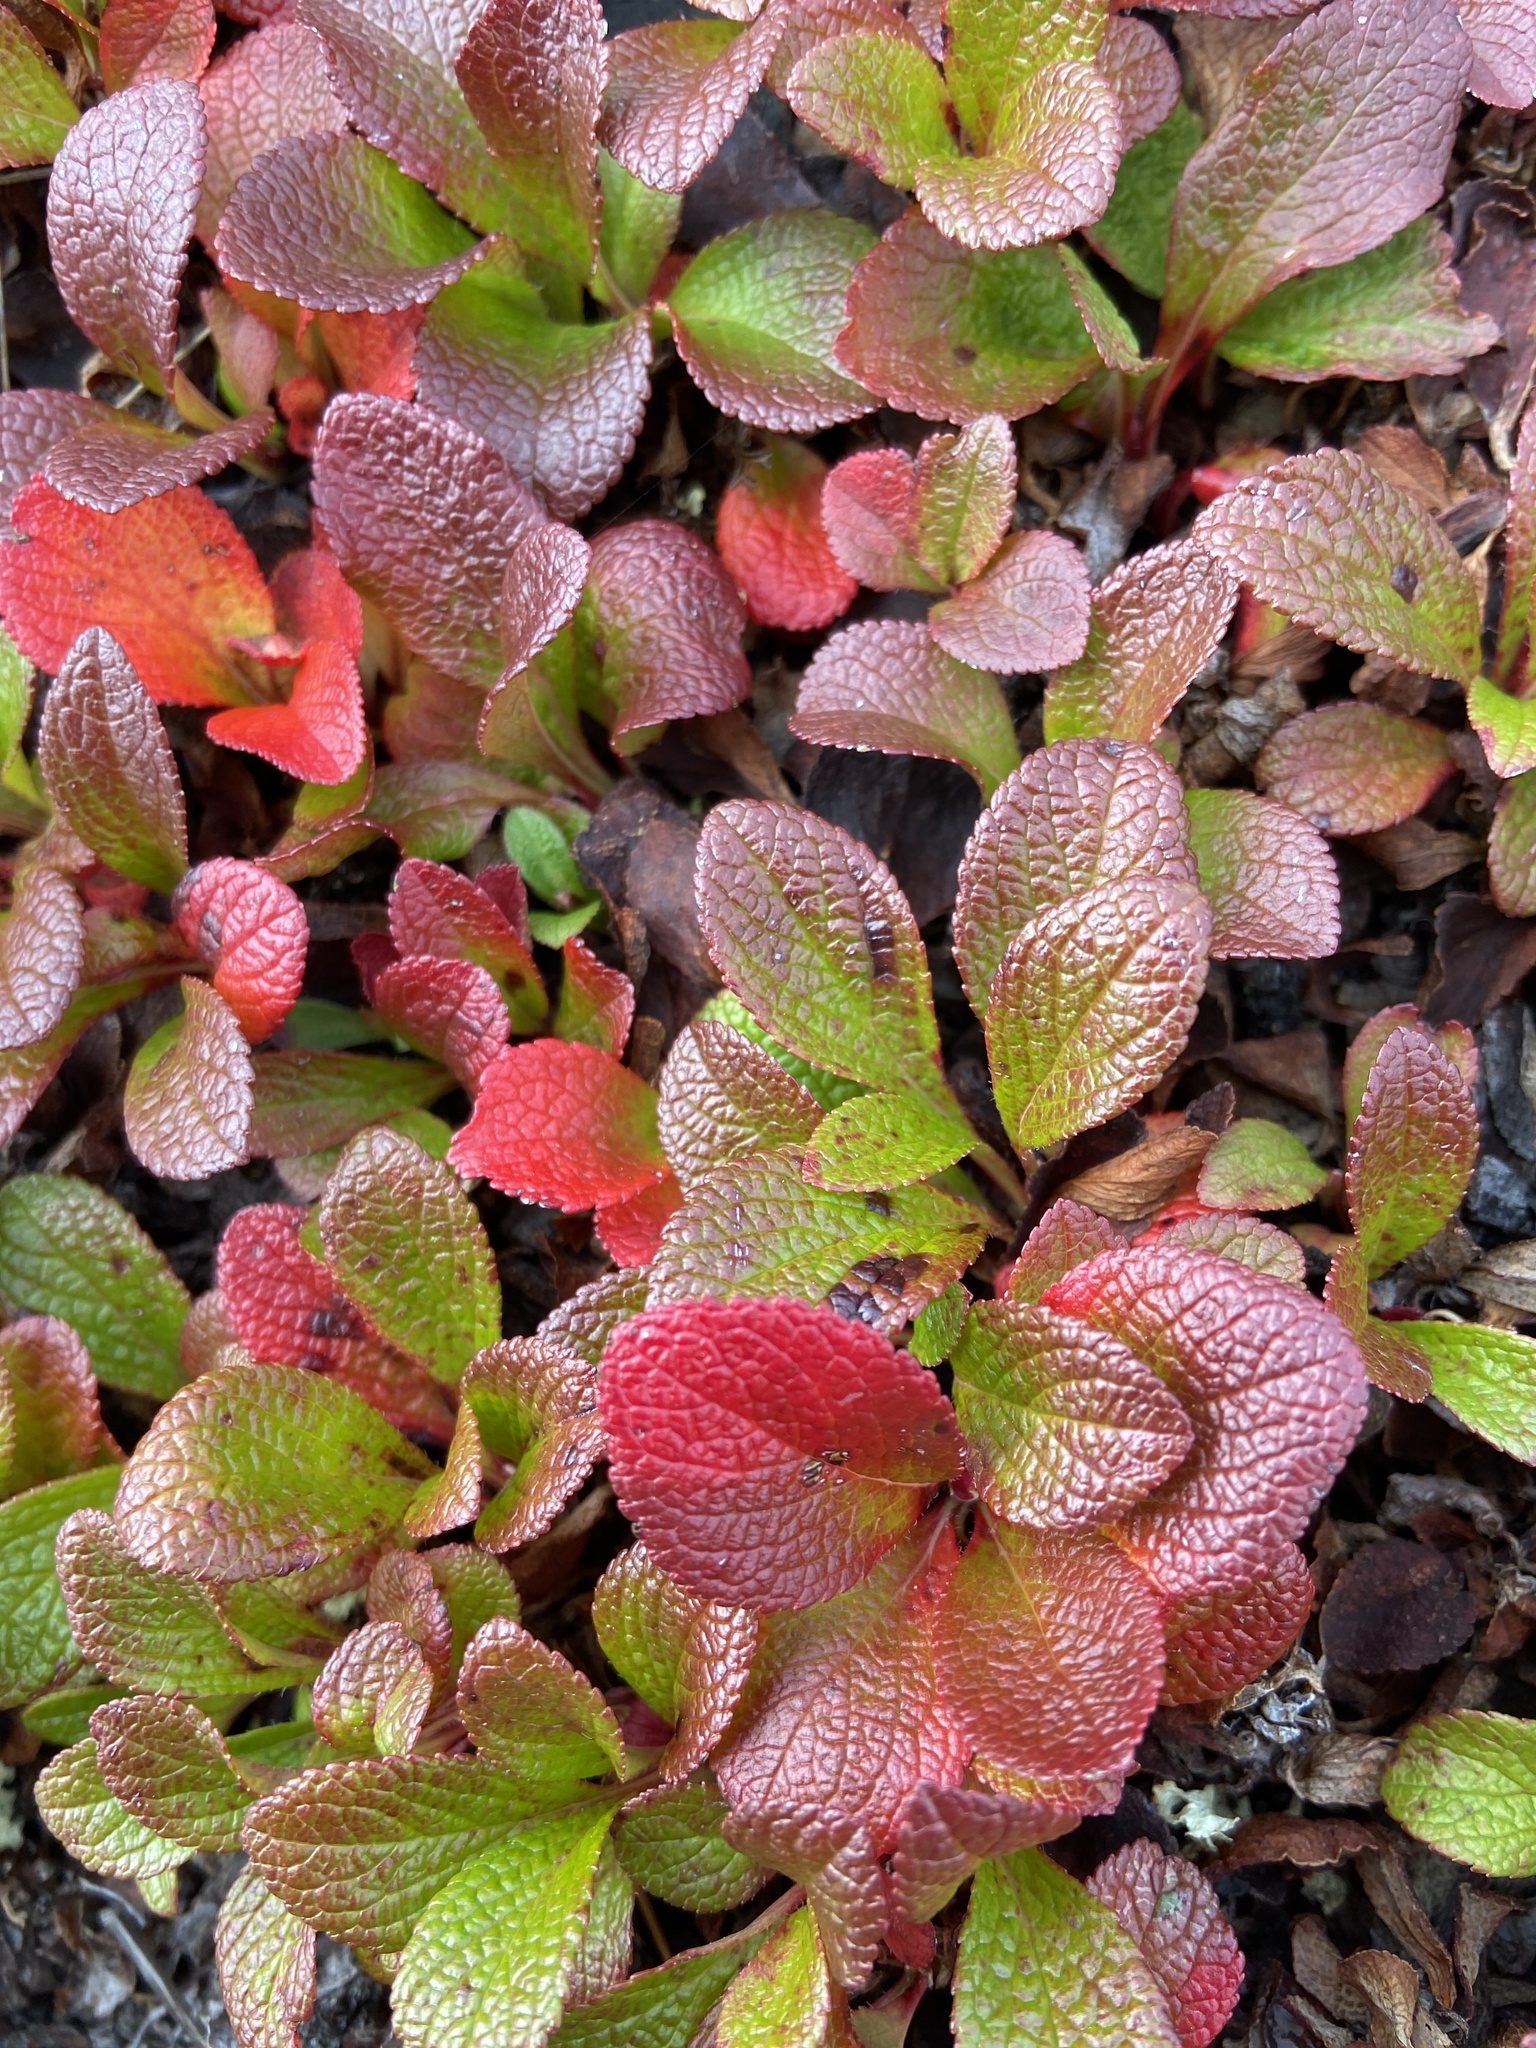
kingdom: Plantae
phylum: Tracheophyta
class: Magnoliopsida
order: Ericales
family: Ericaceae
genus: Arctostaphylos
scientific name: Arctostaphylos alpinus
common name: Alpine bearberry
